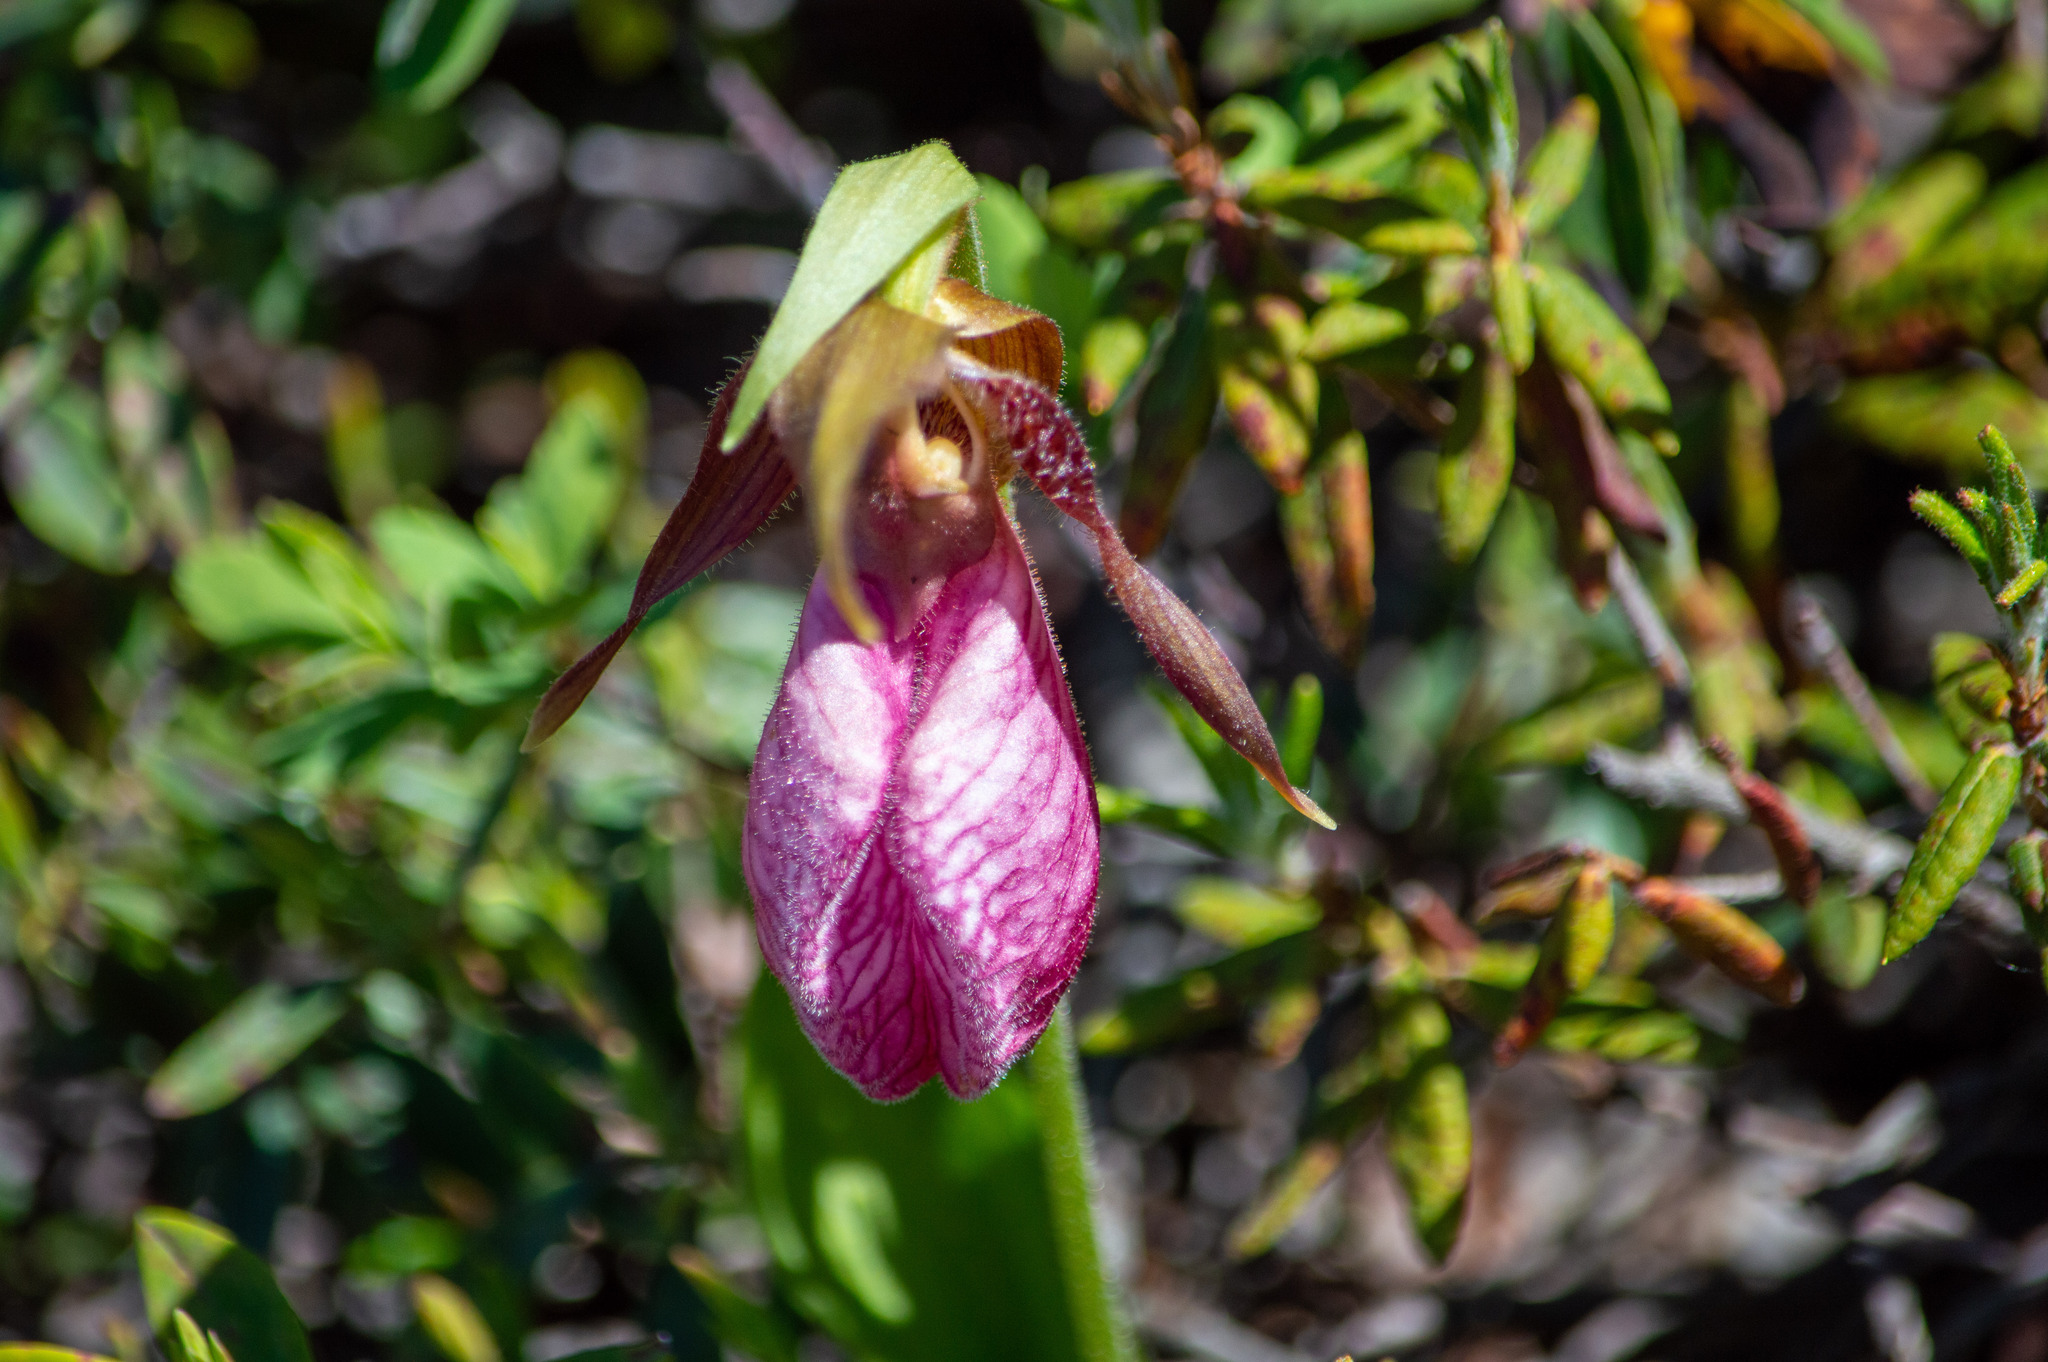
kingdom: Plantae
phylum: Tracheophyta
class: Liliopsida
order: Asparagales
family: Orchidaceae
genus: Cypripedium
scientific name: Cypripedium acaule
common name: Pink lady's-slipper
